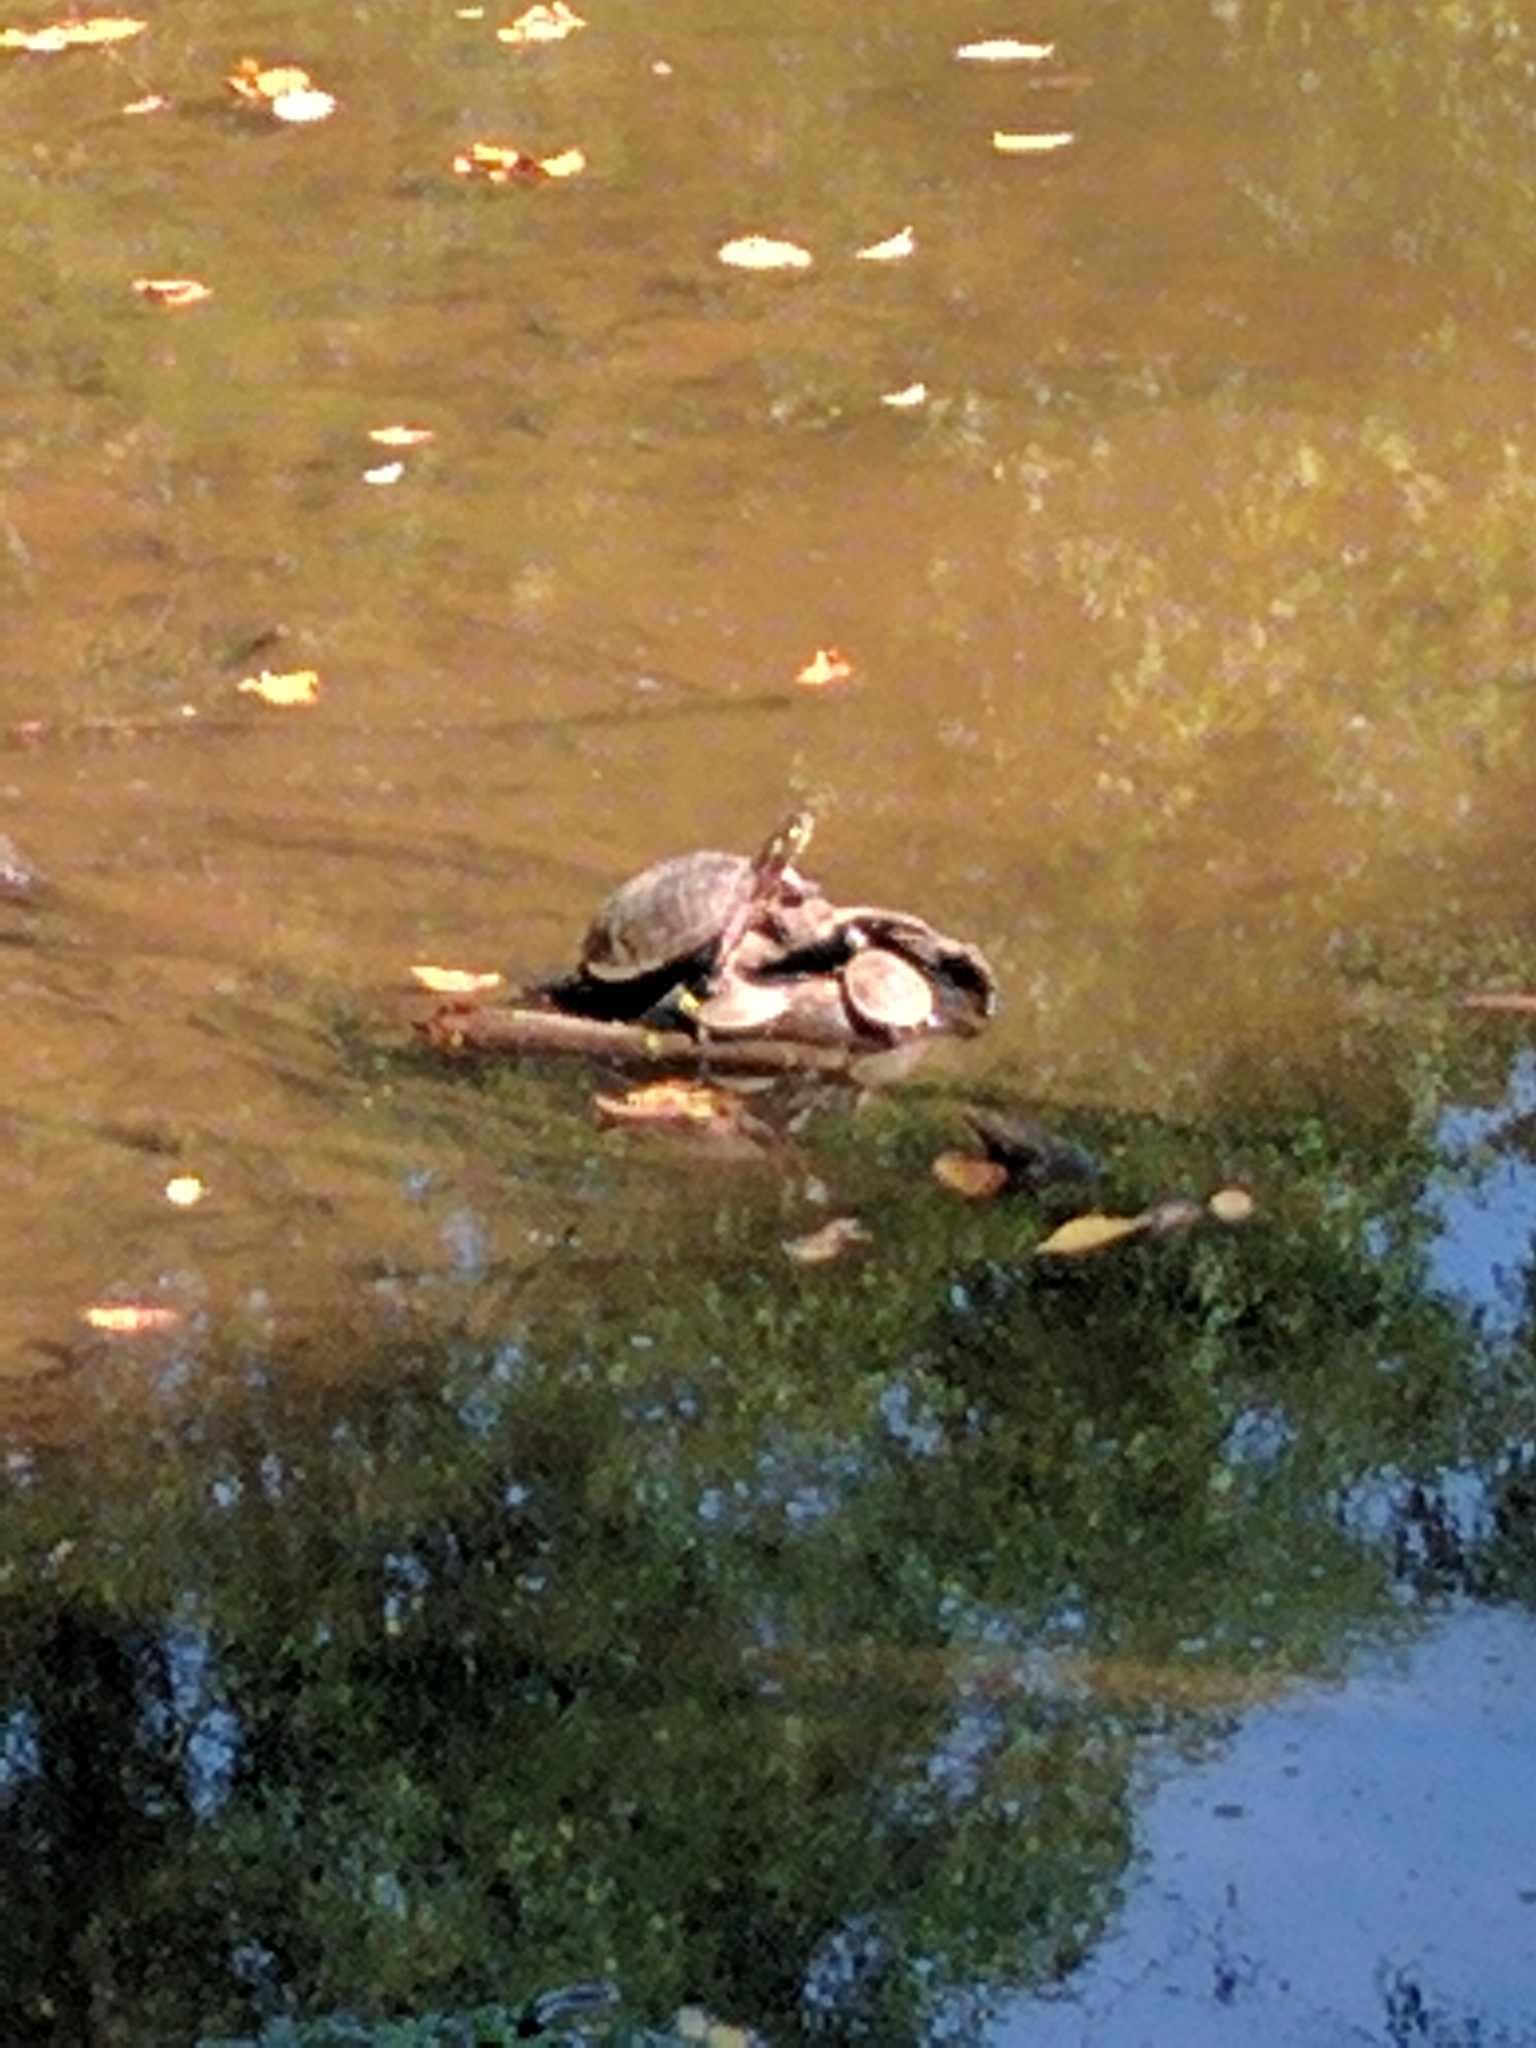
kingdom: Animalia
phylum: Chordata
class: Testudines
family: Emydidae
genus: Chrysemys
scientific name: Chrysemys picta
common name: Painted turtle
